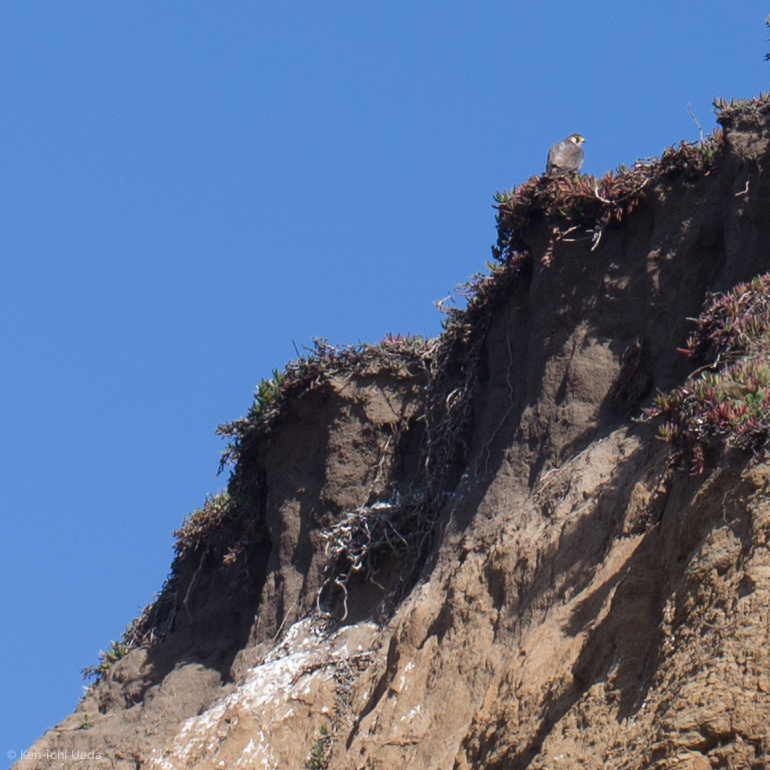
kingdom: Animalia
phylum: Chordata
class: Aves
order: Falconiformes
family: Falconidae
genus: Falco
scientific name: Falco peregrinus
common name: Peregrine falcon
